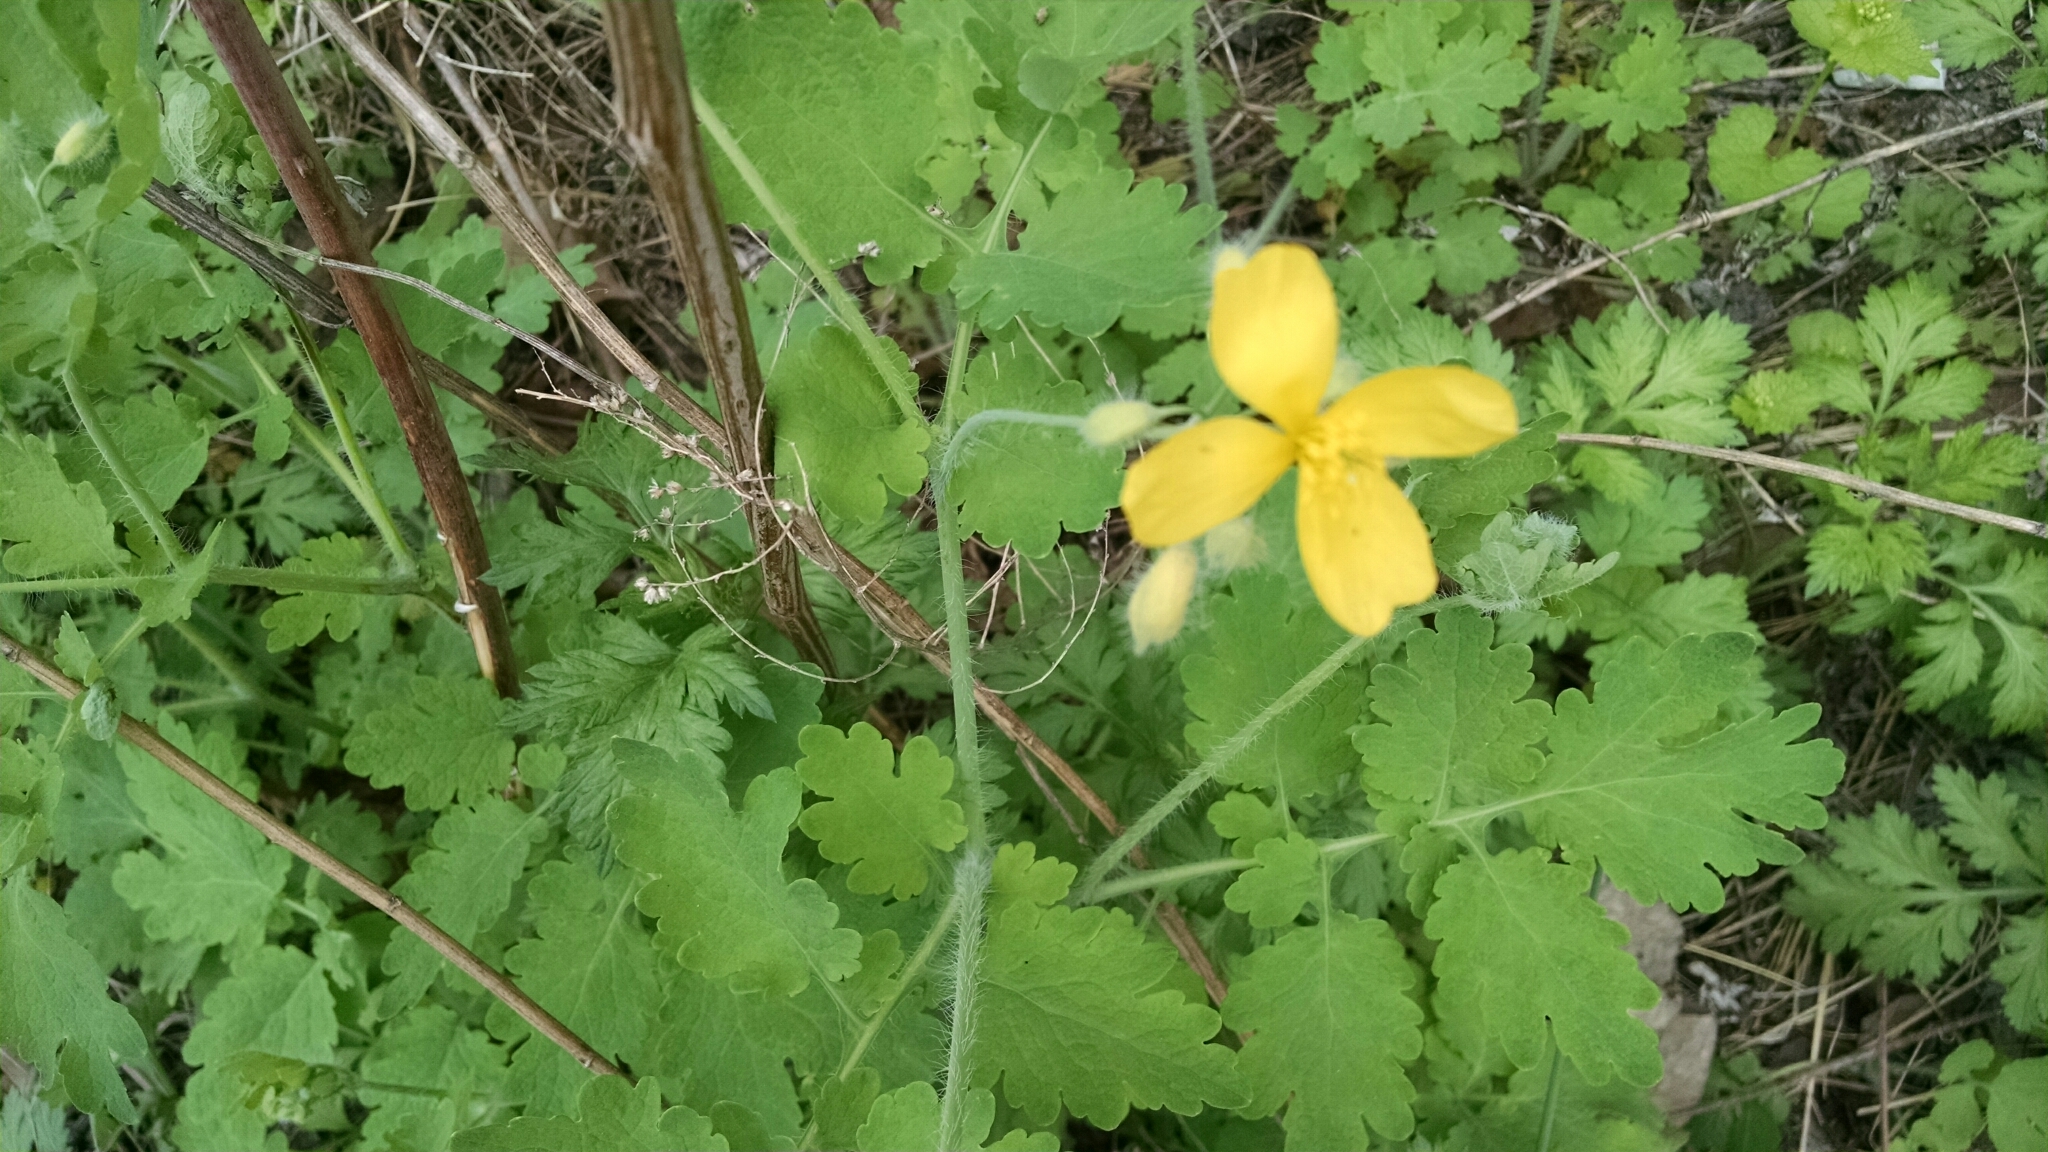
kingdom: Plantae
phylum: Tracheophyta
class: Magnoliopsida
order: Ranunculales
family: Papaveraceae
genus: Chelidonium
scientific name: Chelidonium majus
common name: Greater celandine
